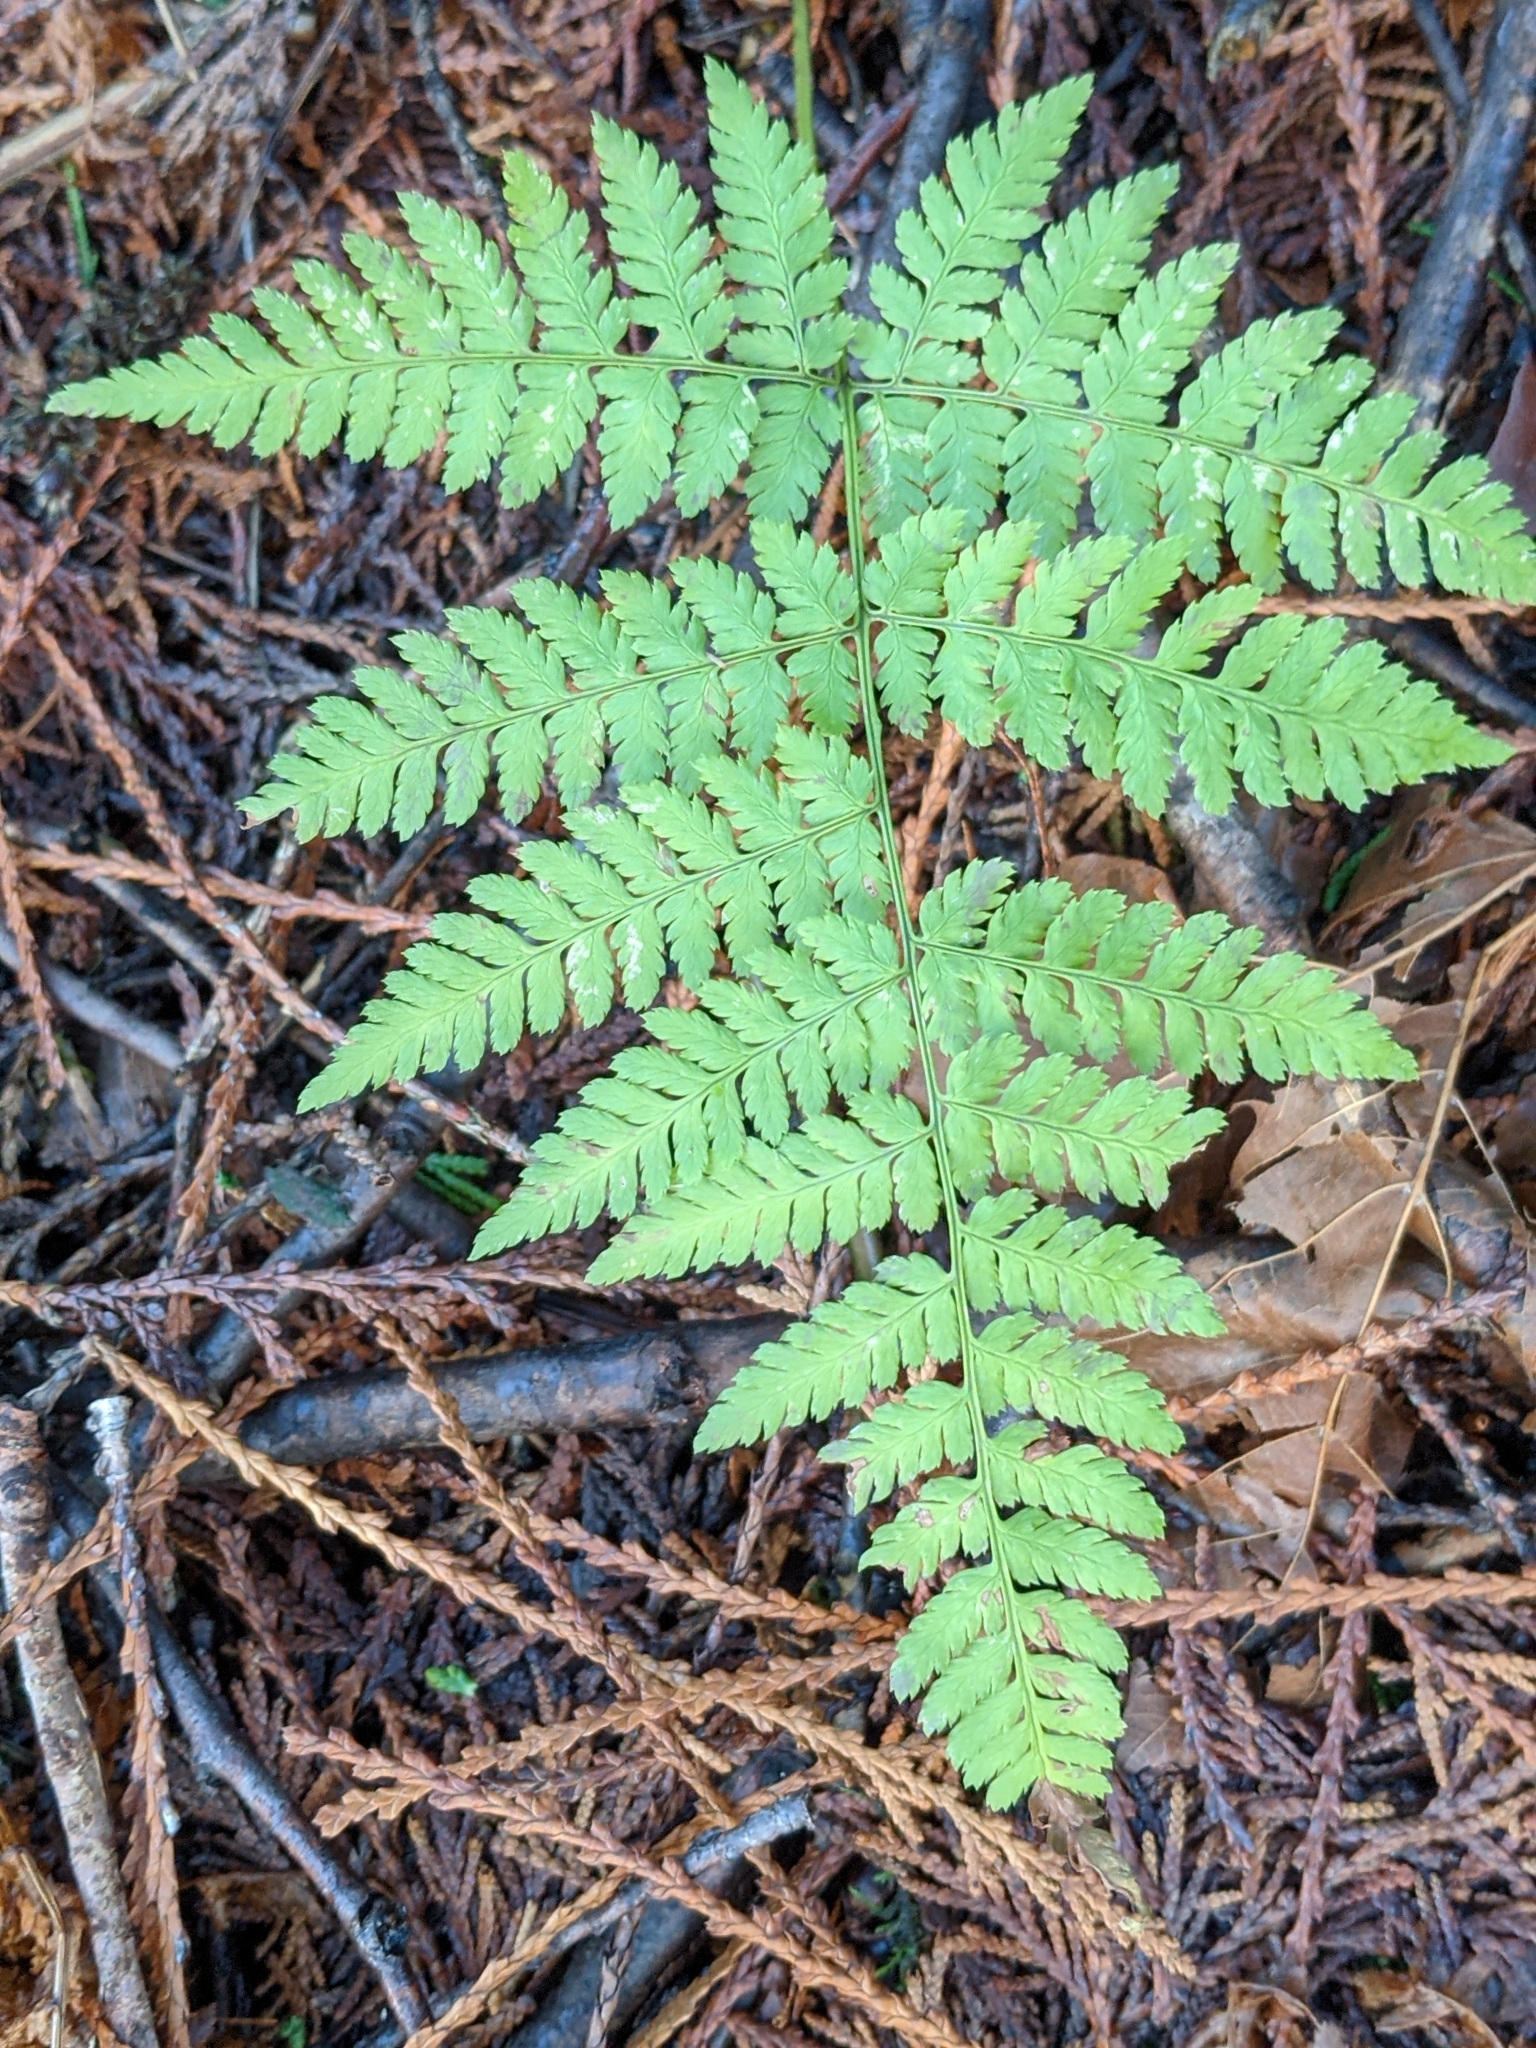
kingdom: Plantae
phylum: Tracheophyta
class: Polypodiopsida
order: Polypodiales
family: Dryopteridaceae
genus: Dryopteris
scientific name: Dryopteris expansa
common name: Northern buckler fern
